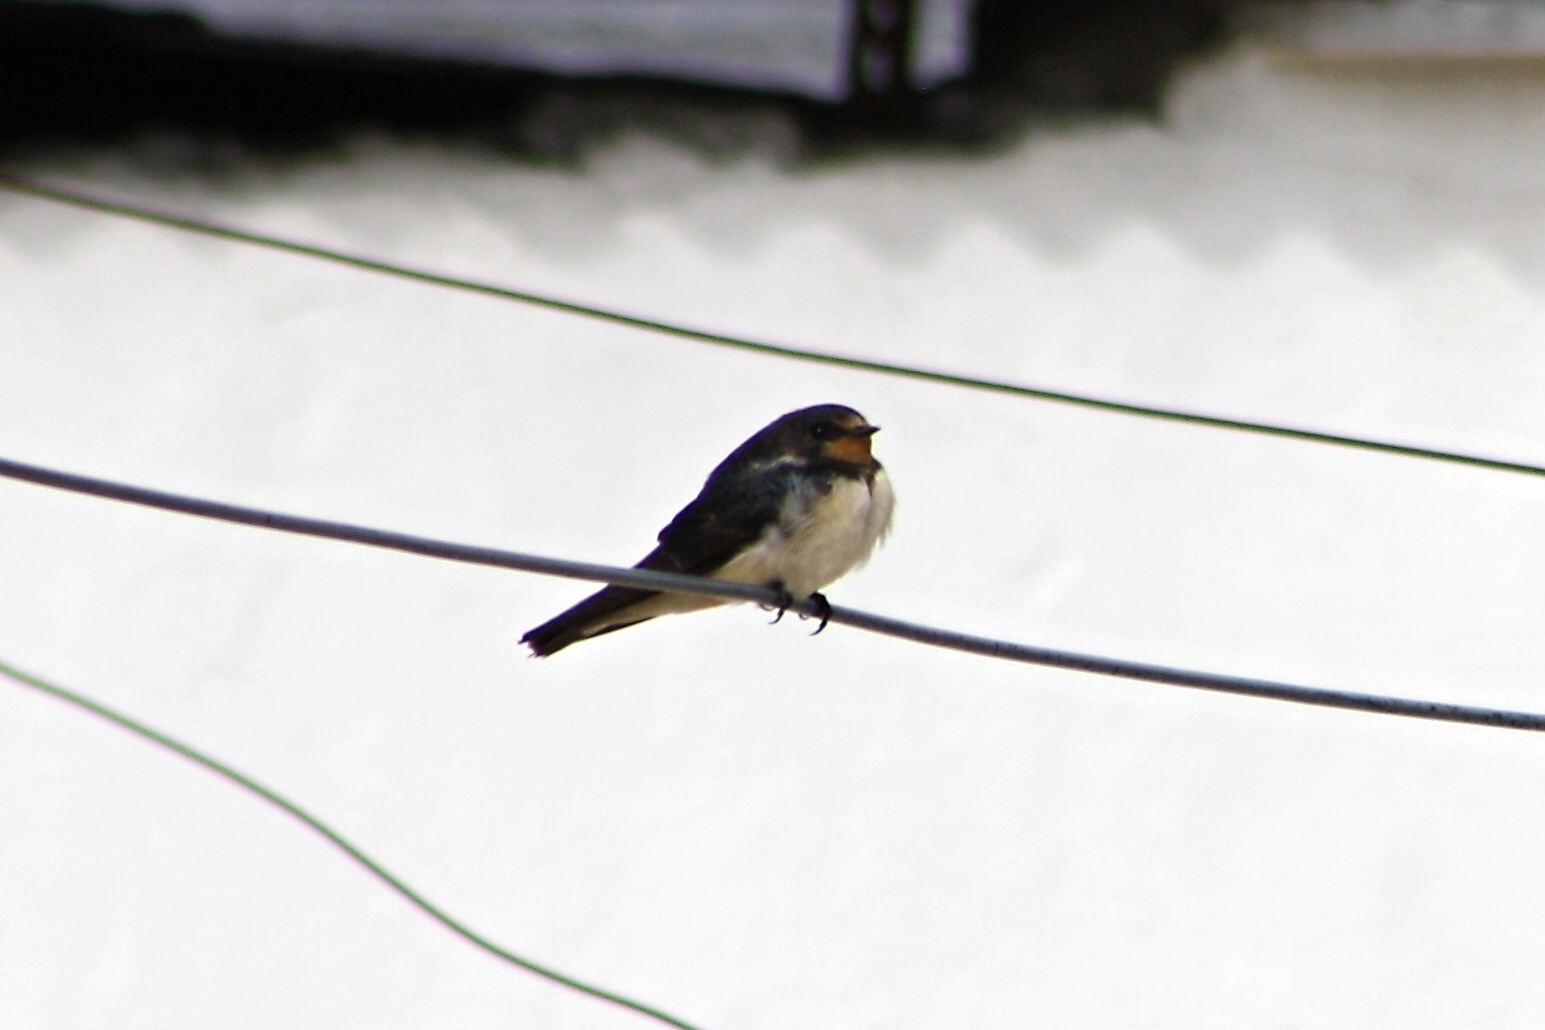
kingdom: Animalia
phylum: Chordata
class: Aves
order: Passeriformes
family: Hirundinidae
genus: Hirundo
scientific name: Hirundo rustica
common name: Barn swallow
